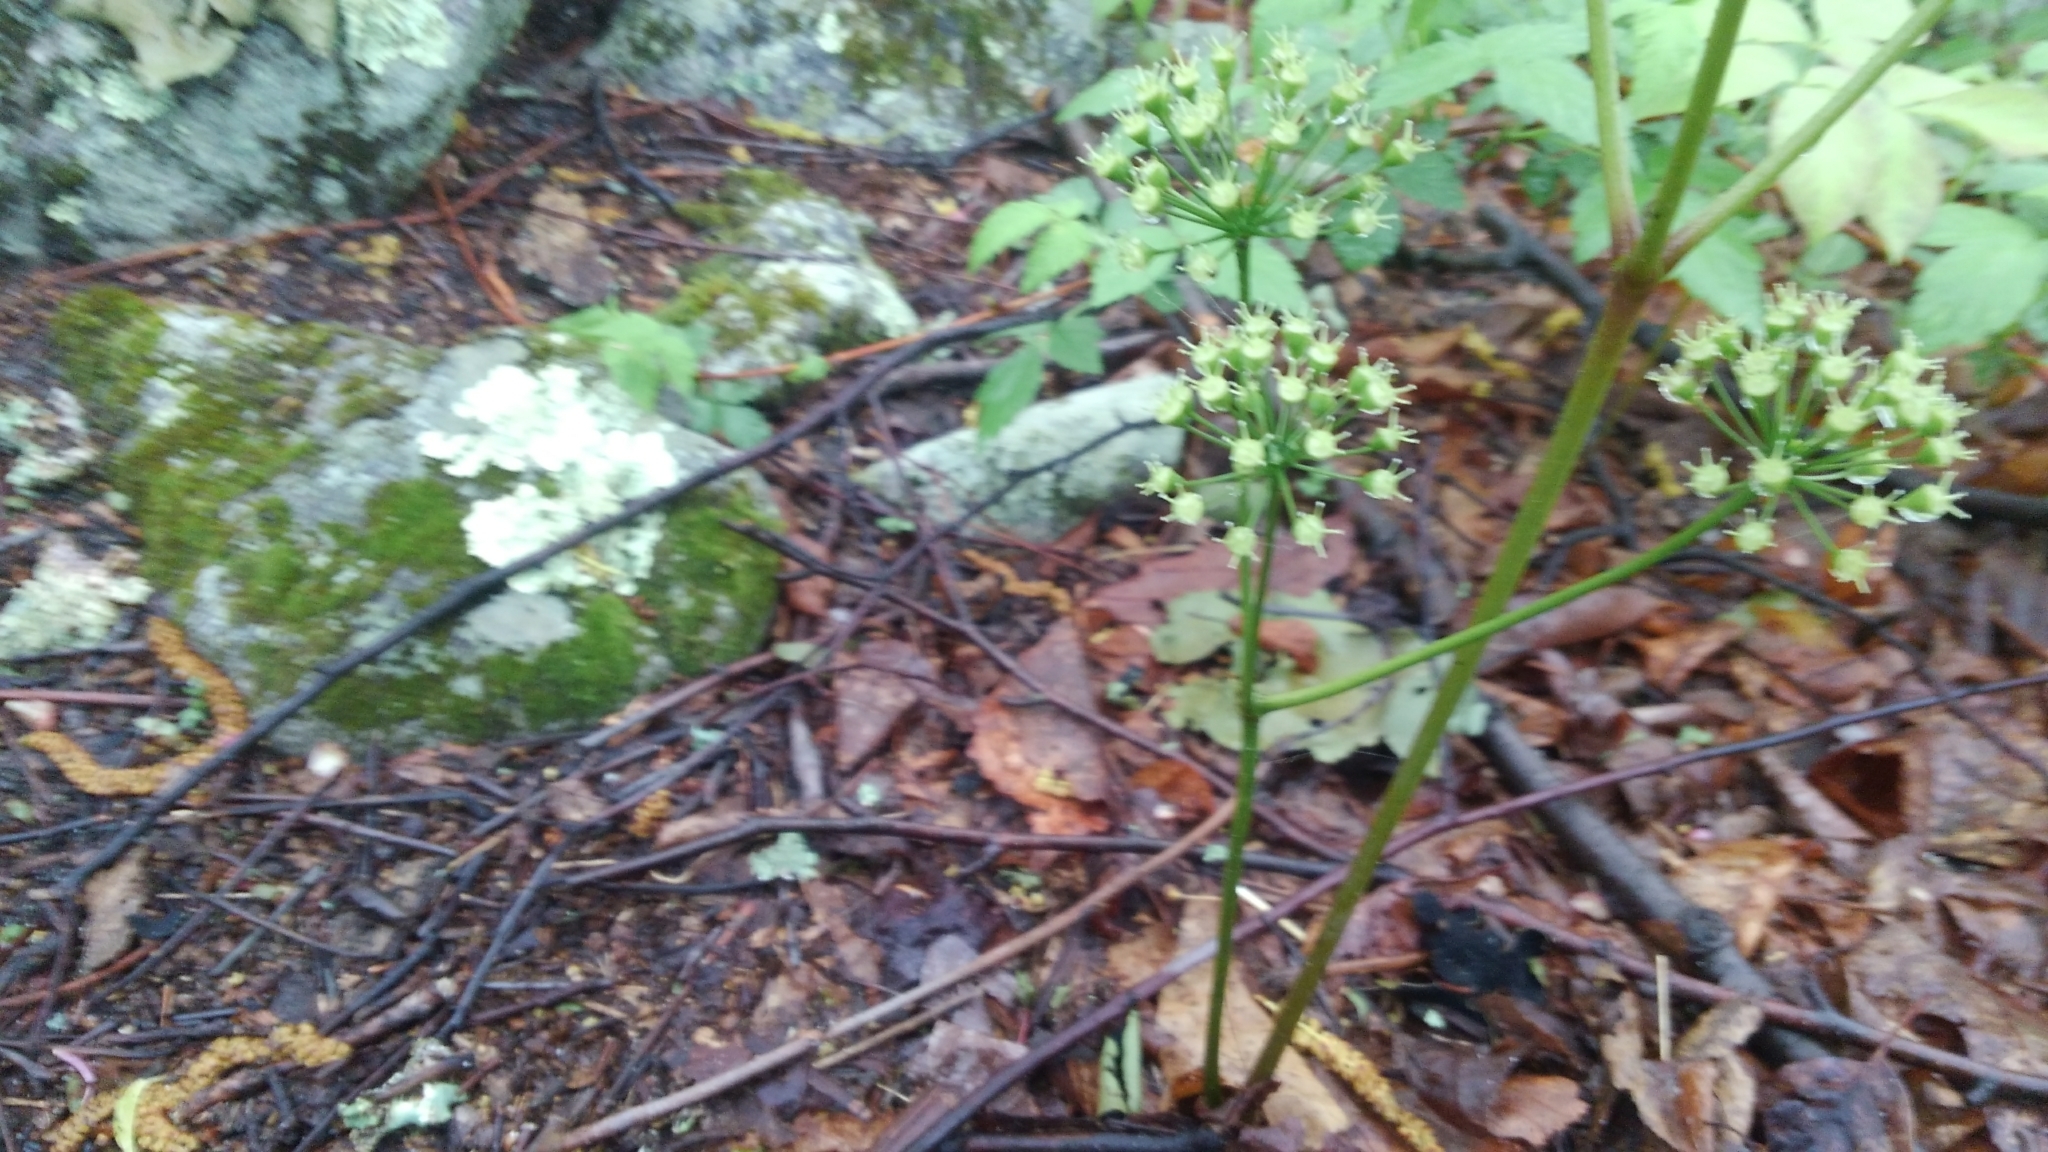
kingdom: Plantae
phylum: Tracheophyta
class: Magnoliopsida
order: Apiales
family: Araliaceae
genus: Aralia
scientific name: Aralia nudicaulis
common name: Wild sarsaparilla
